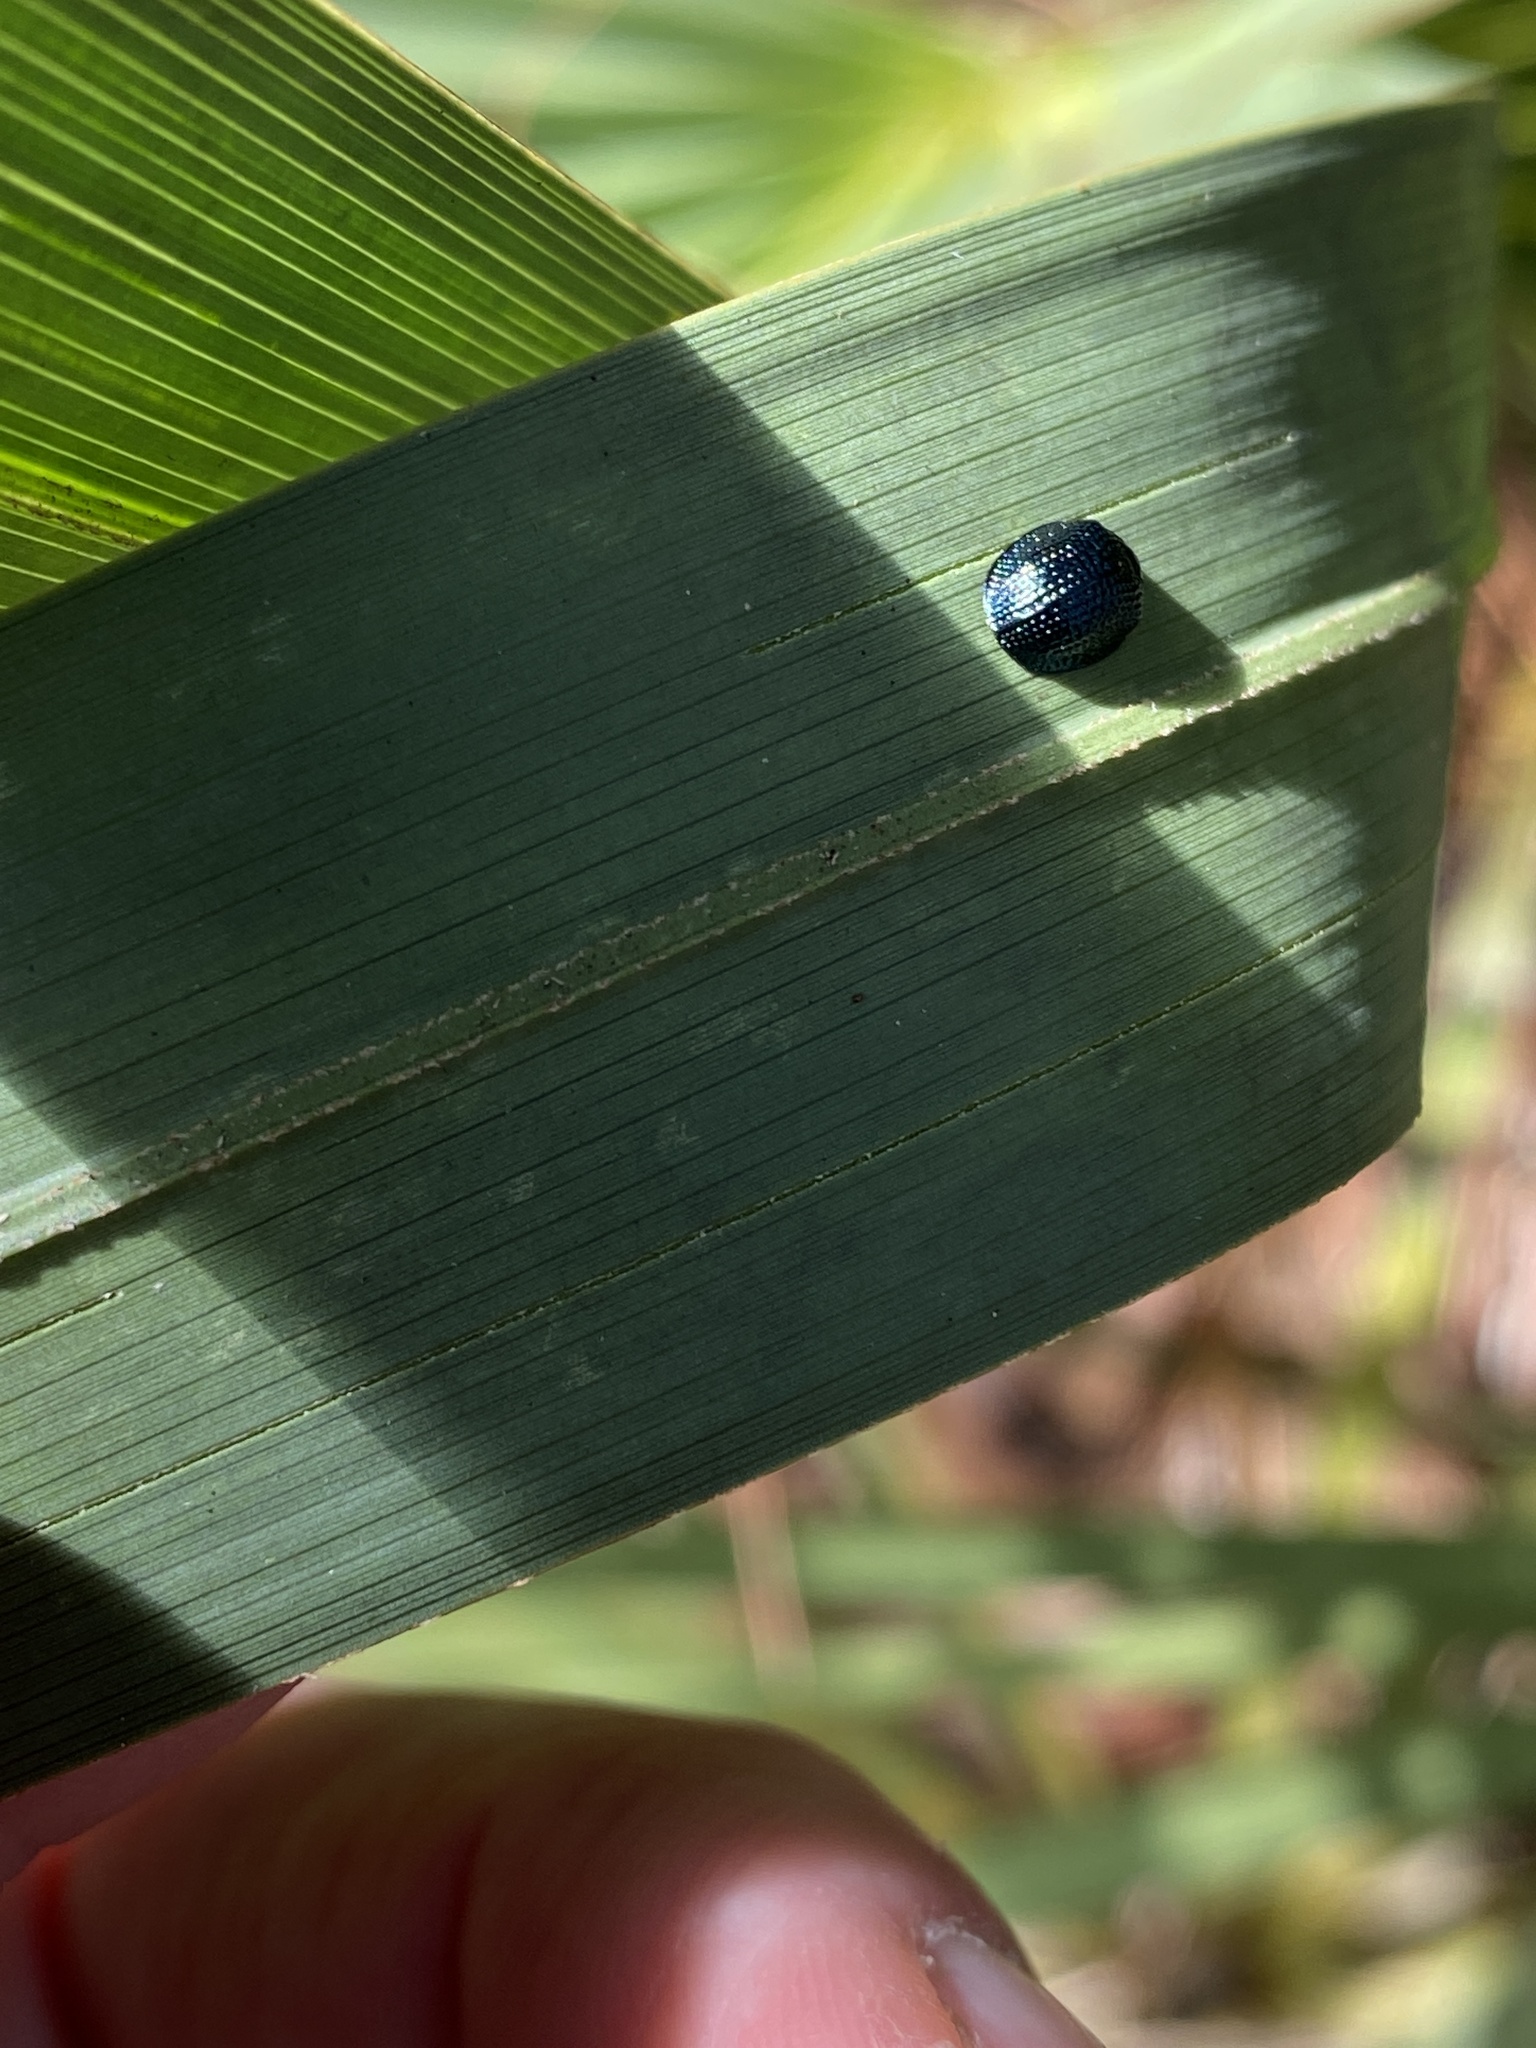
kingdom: Animalia
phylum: Arthropoda
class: Insecta
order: Coleoptera
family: Chrysomelidae
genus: Hemisphaerota
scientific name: Hemisphaerota cyanea
